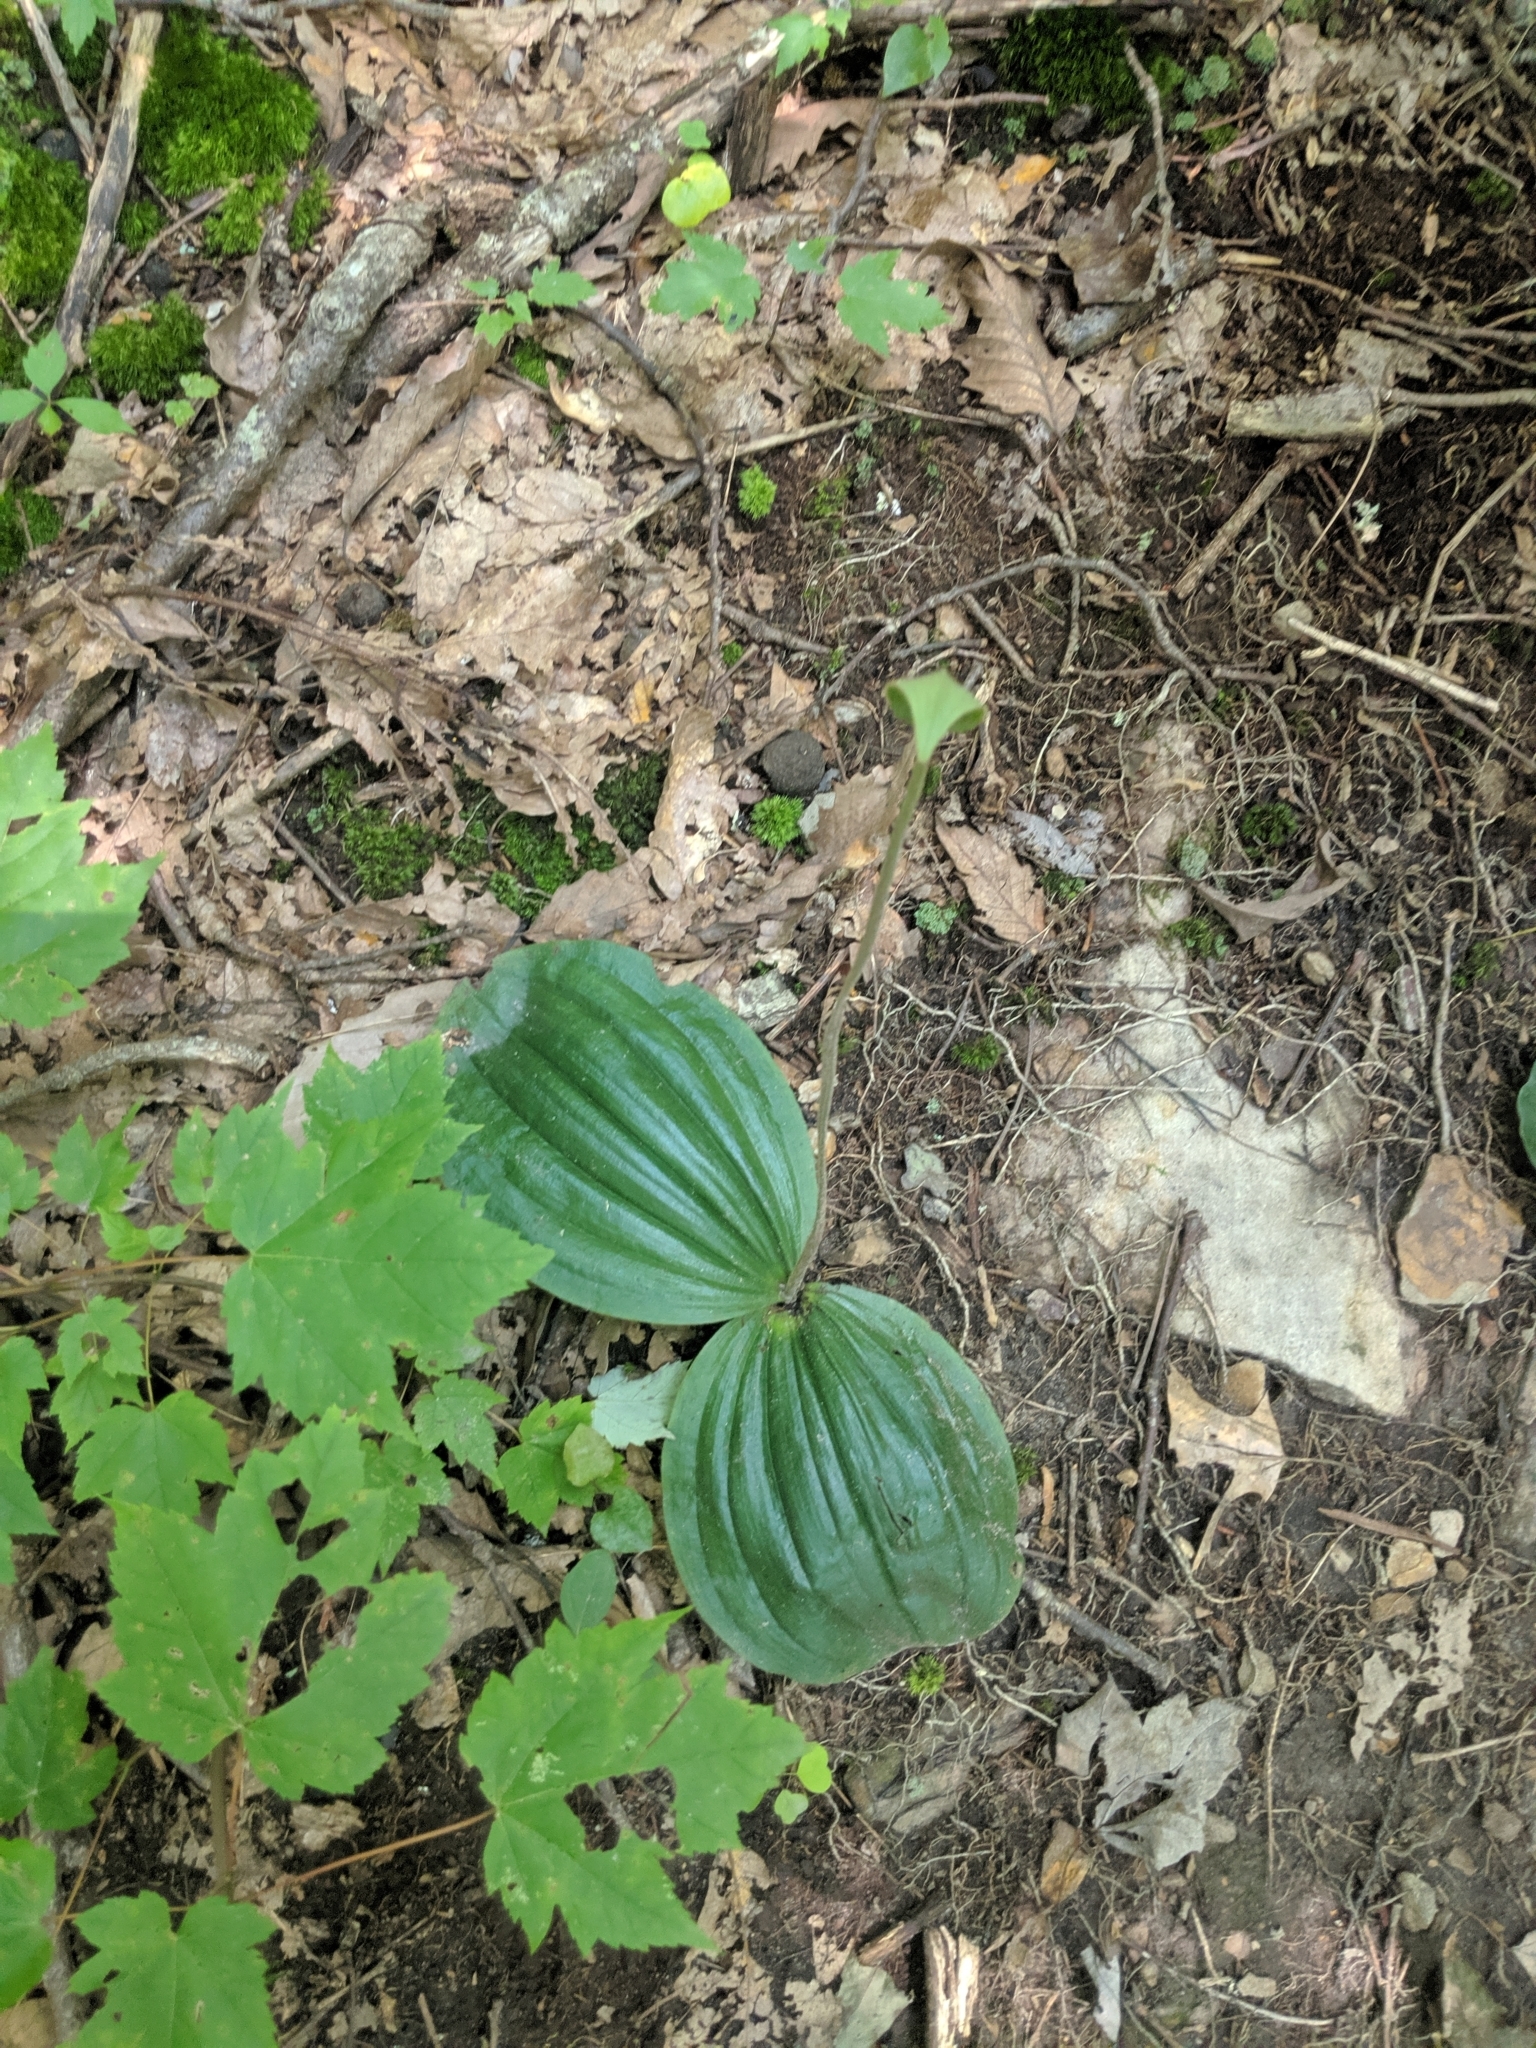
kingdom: Plantae
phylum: Tracheophyta
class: Liliopsida
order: Asparagales
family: Orchidaceae
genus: Cypripedium
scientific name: Cypripedium acaule
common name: Pink lady's-slipper
